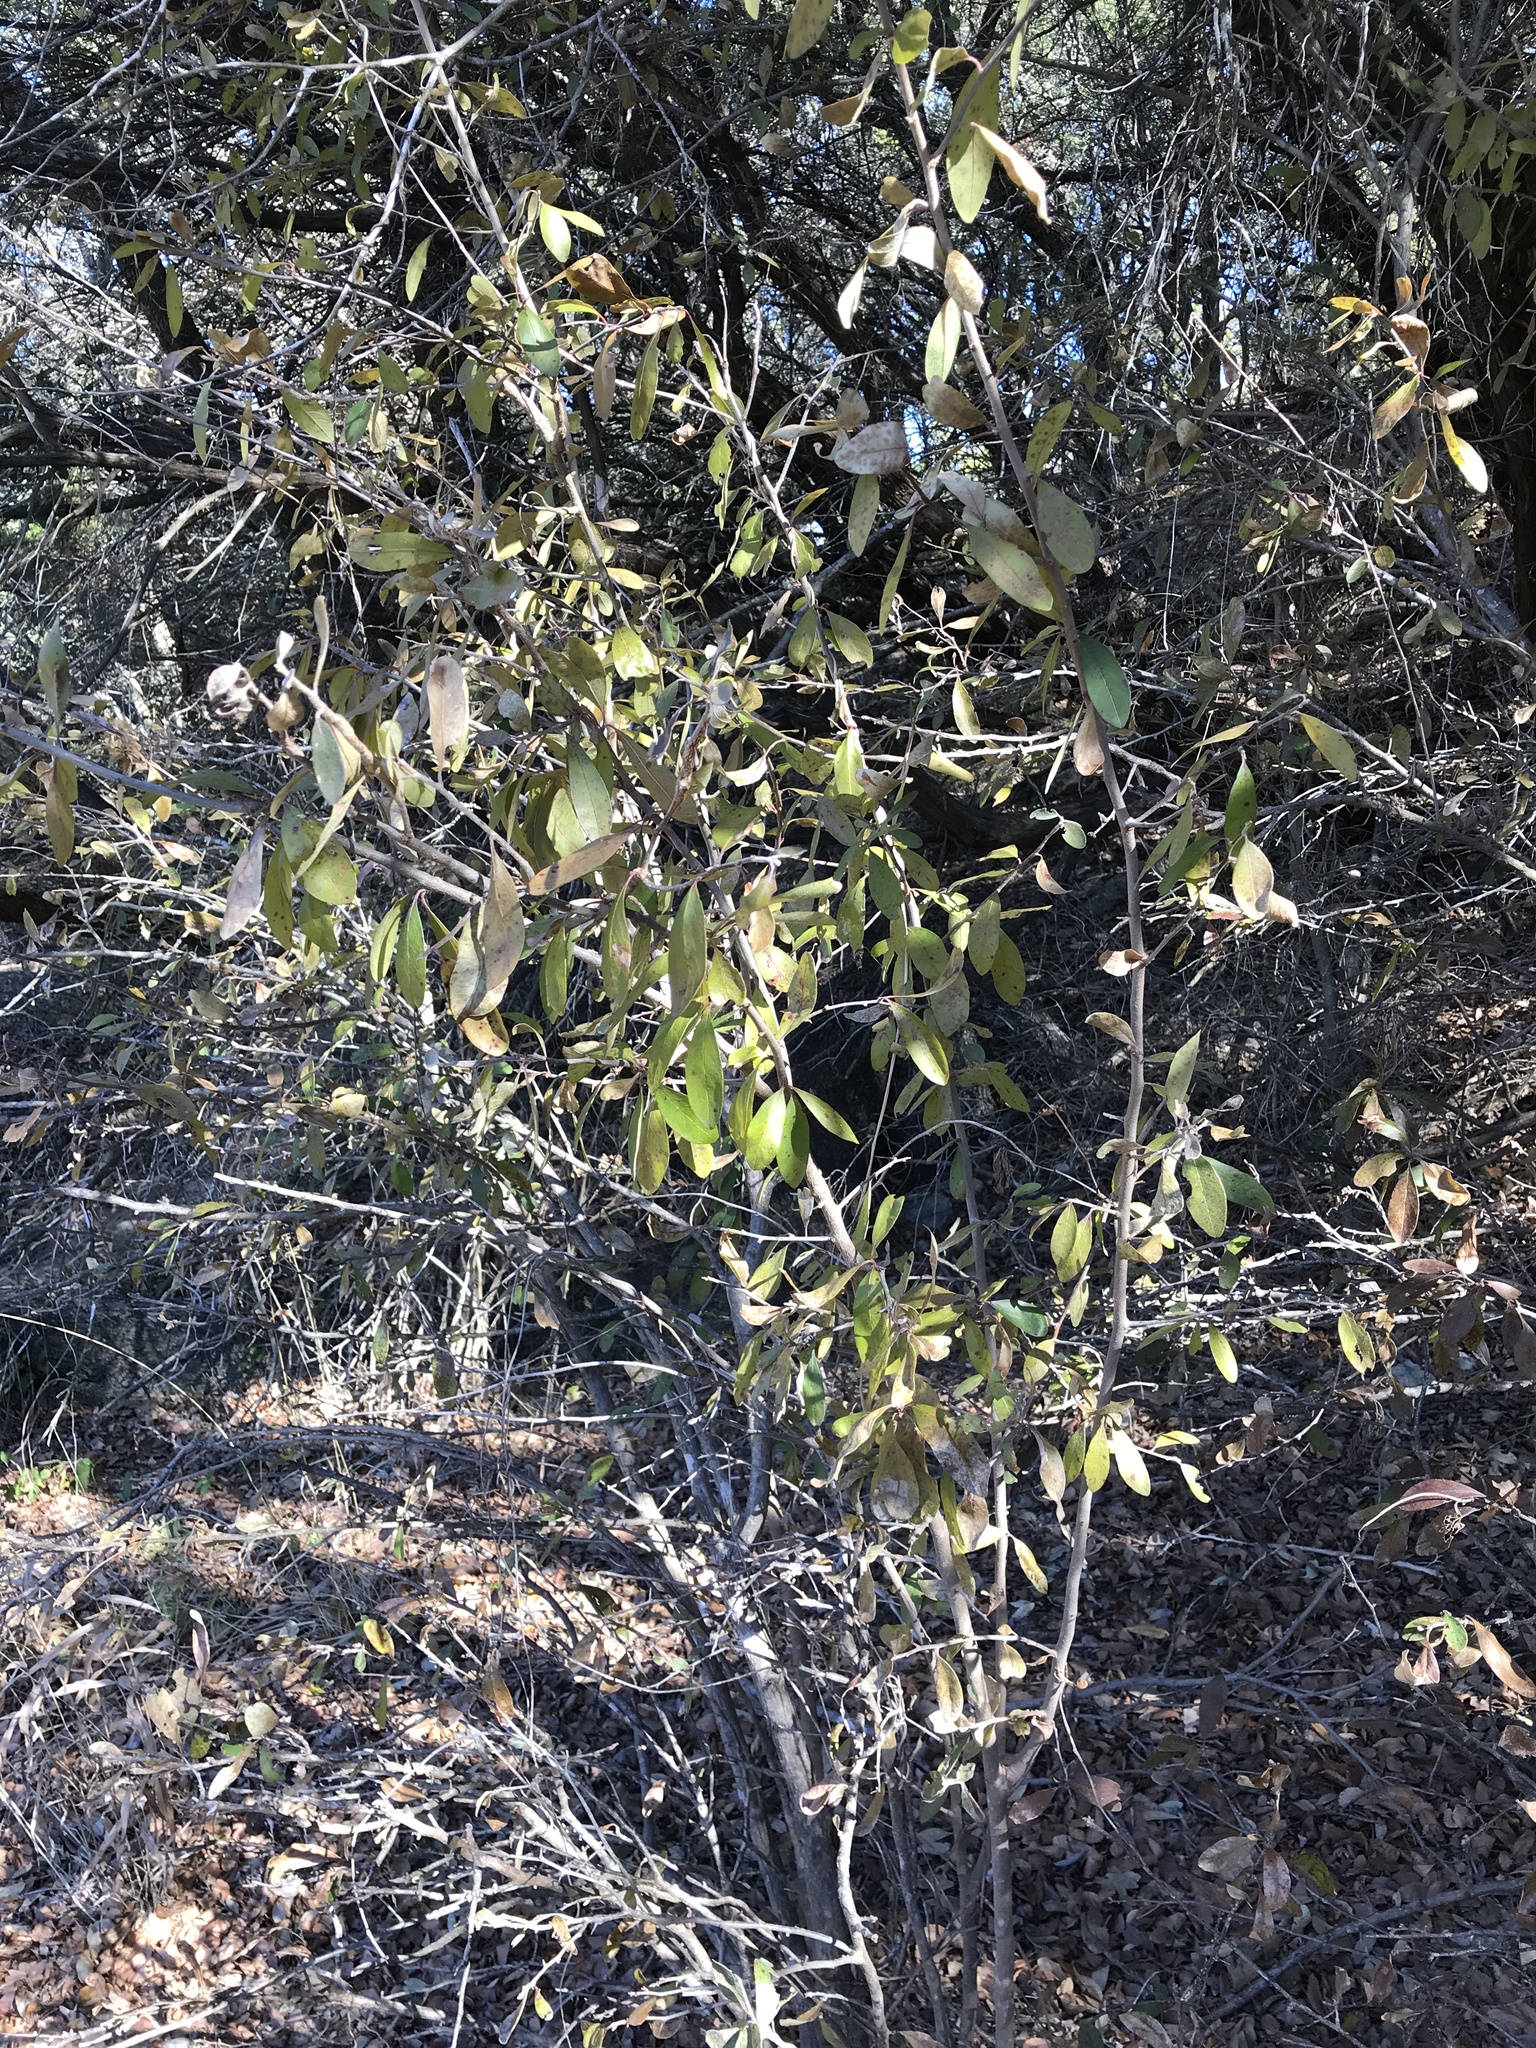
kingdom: Plantae
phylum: Tracheophyta
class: Magnoliopsida
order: Ericales
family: Sapotaceae
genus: Sideroxylon
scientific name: Sideroxylon lanuginosum
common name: Chittamwood
